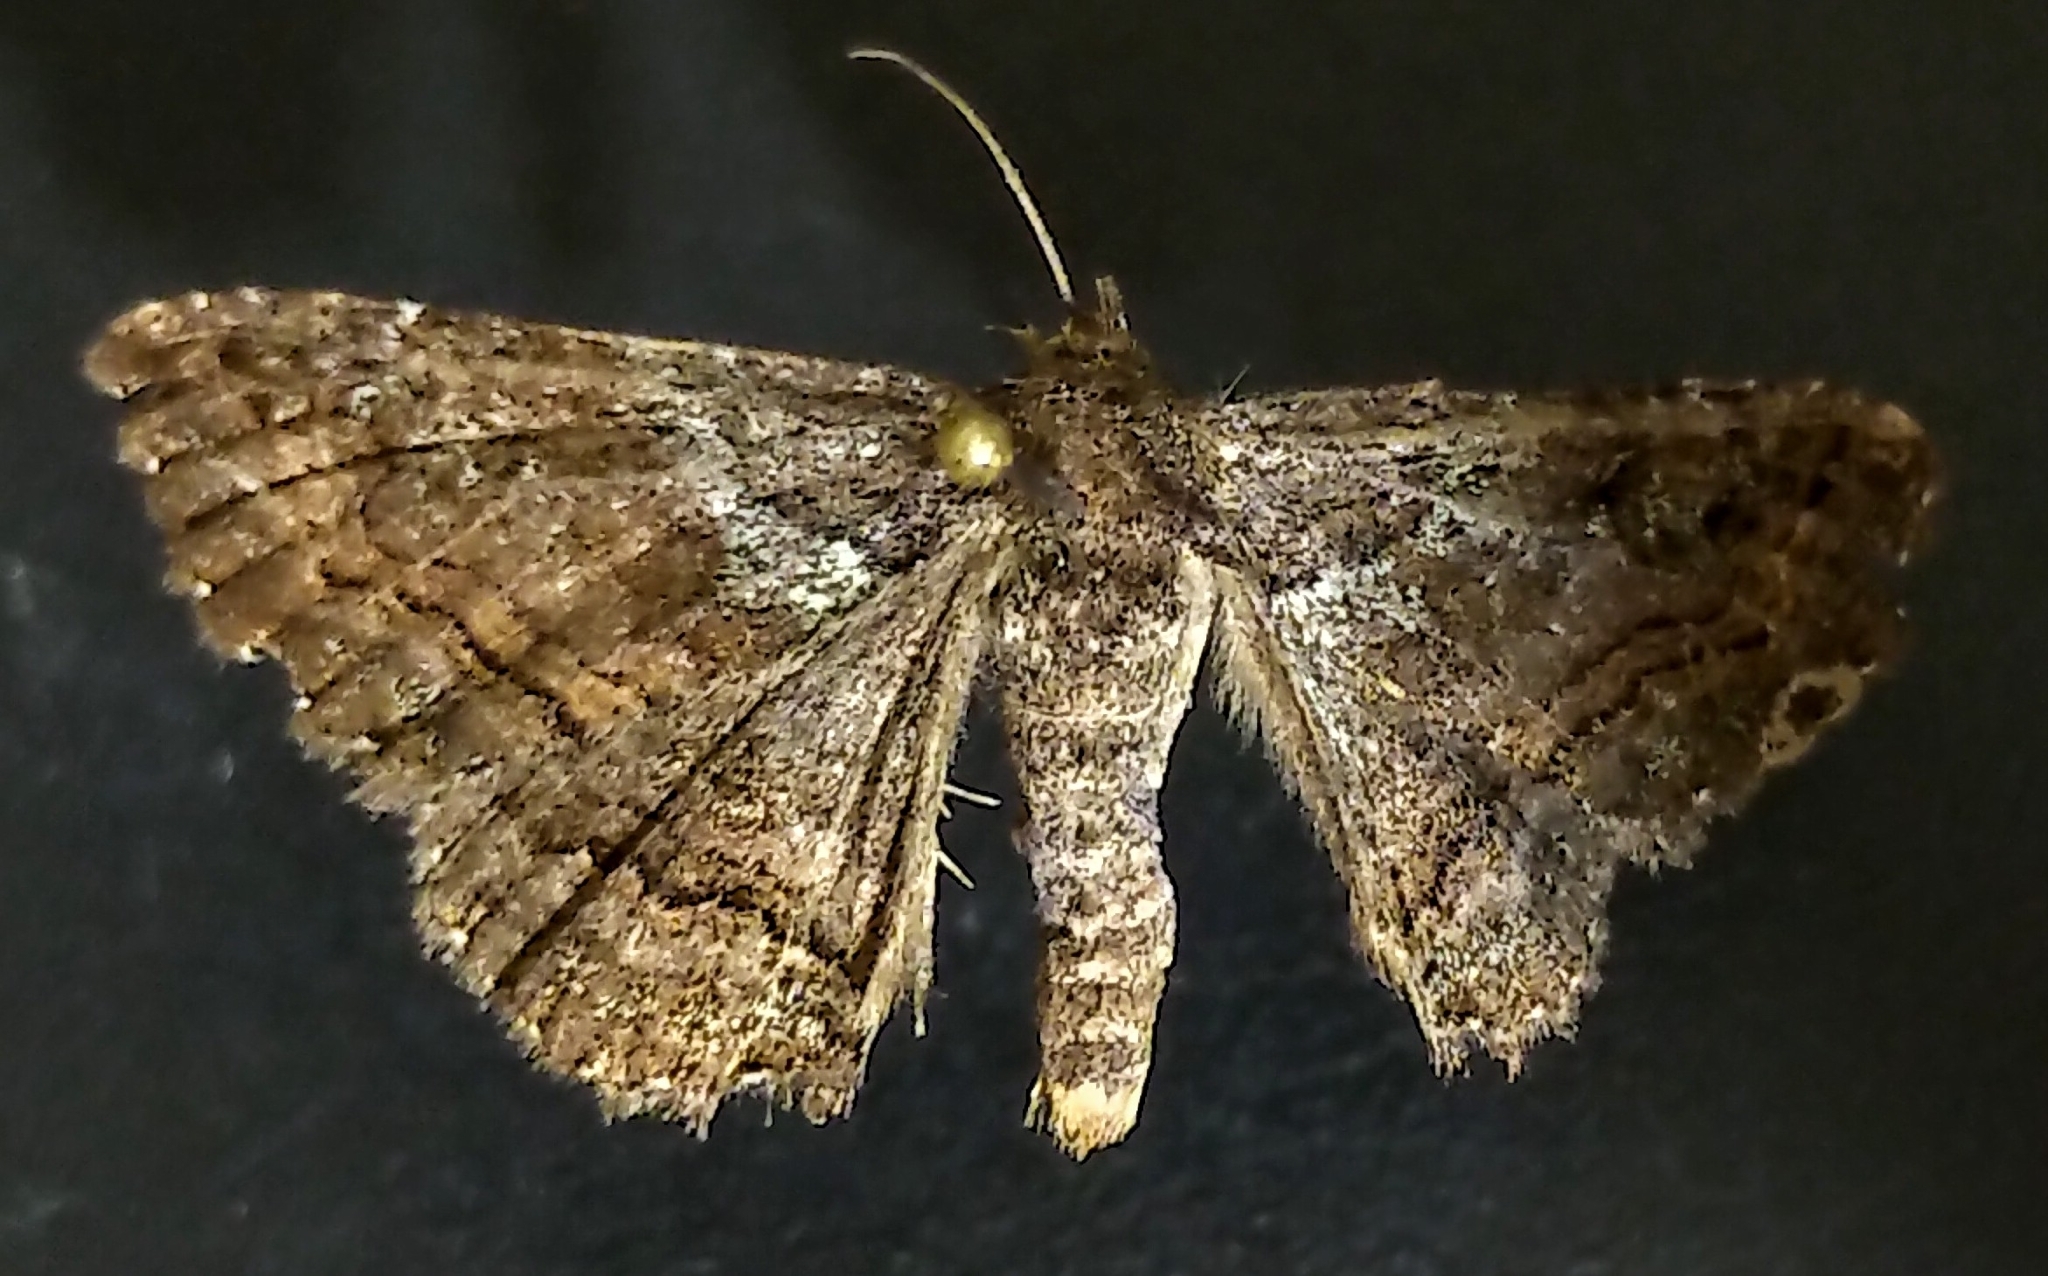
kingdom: Animalia
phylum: Arthropoda
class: Insecta
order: Lepidoptera
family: Erebidae
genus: Zale
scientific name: Zale aeruginosa
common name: Green-dusted zale moth
